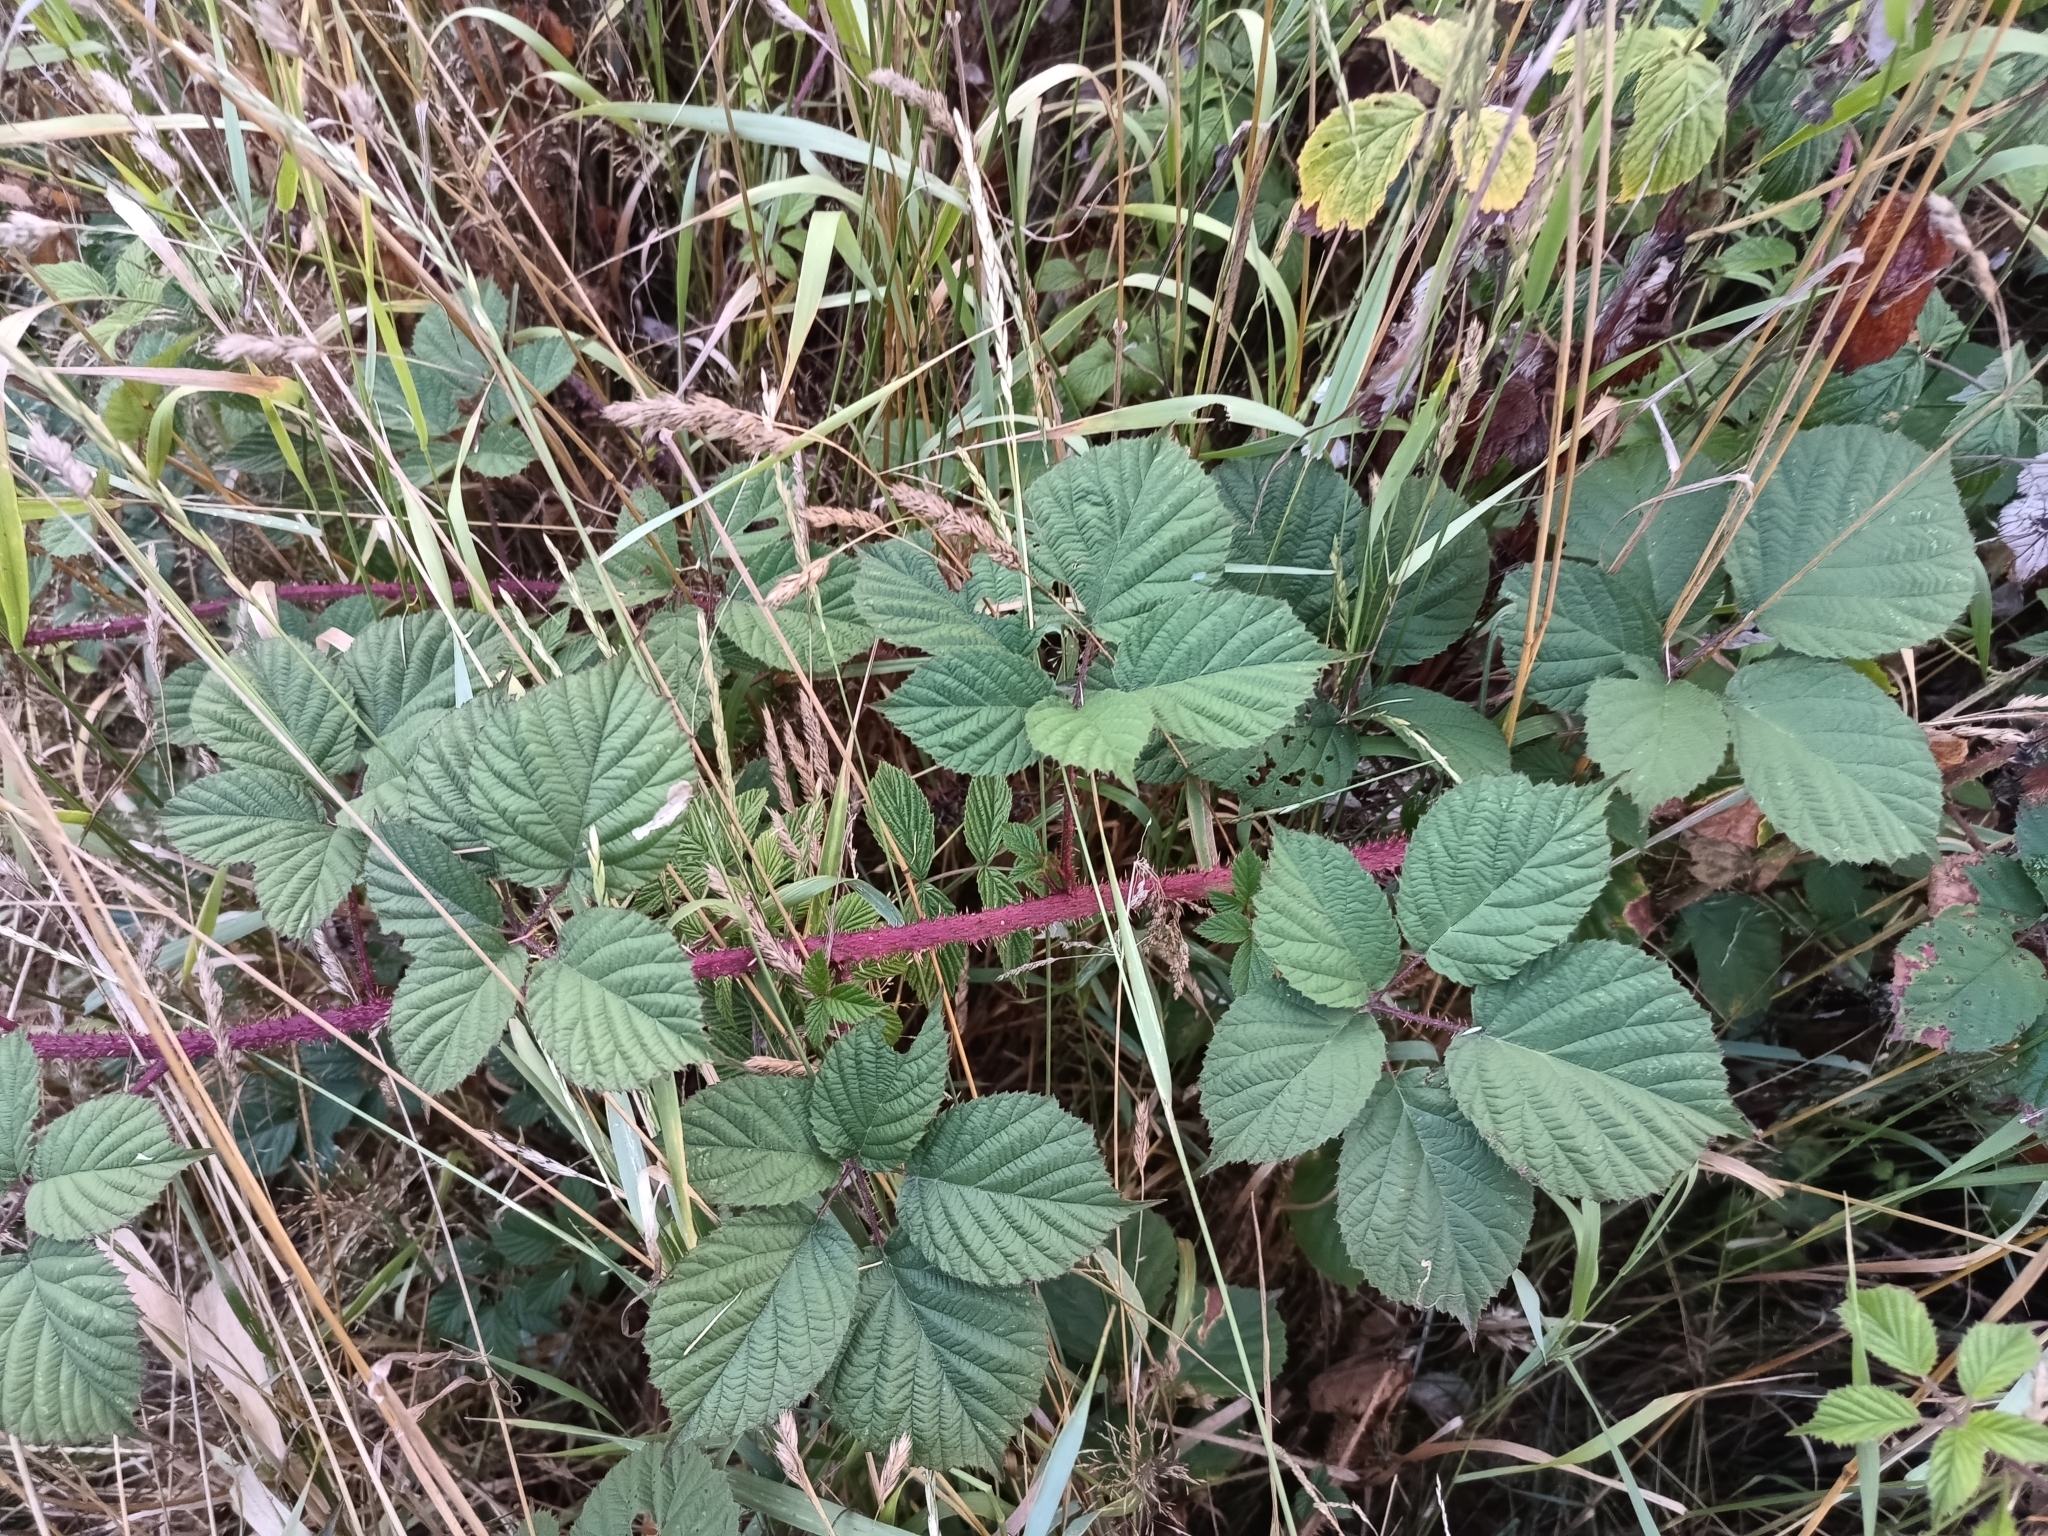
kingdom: Plantae
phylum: Tracheophyta
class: Magnoliopsida
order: Rosales
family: Rosaceae
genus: Rubus
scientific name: Rubus koehleri
